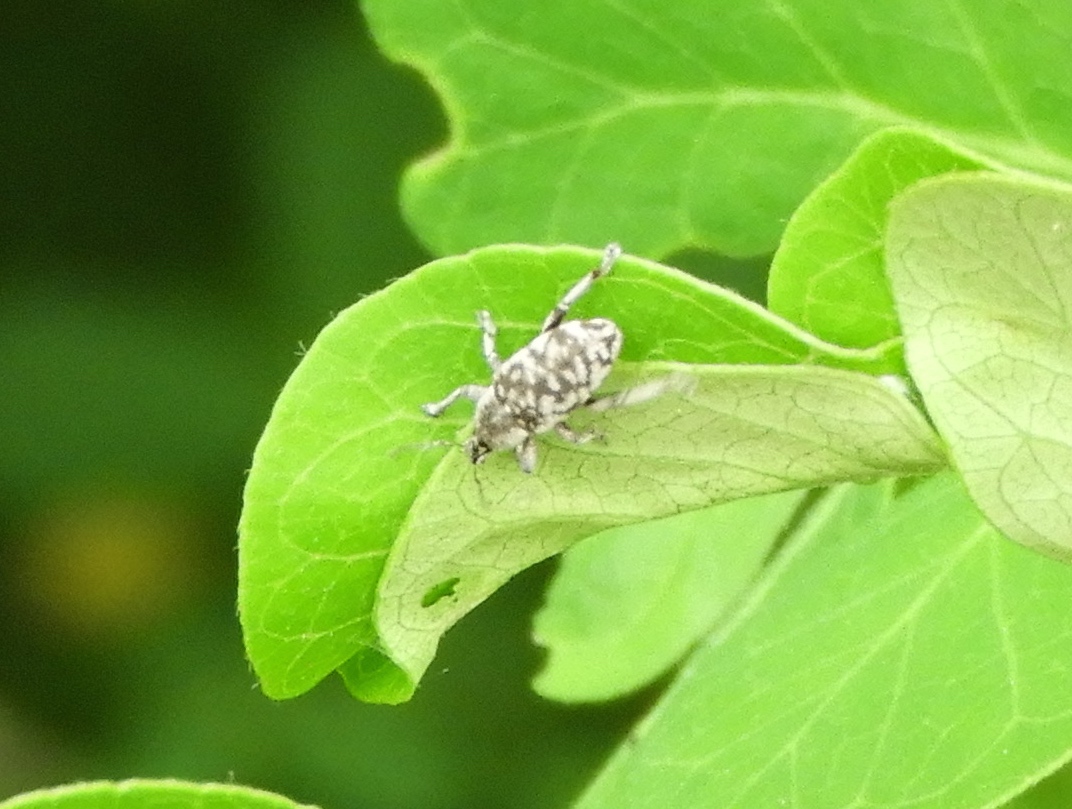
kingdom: Animalia
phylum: Arthropoda
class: Insecta
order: Coleoptera
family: Curculionidae
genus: Eucoleocerus
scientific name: Eucoleocerus conicicollis
